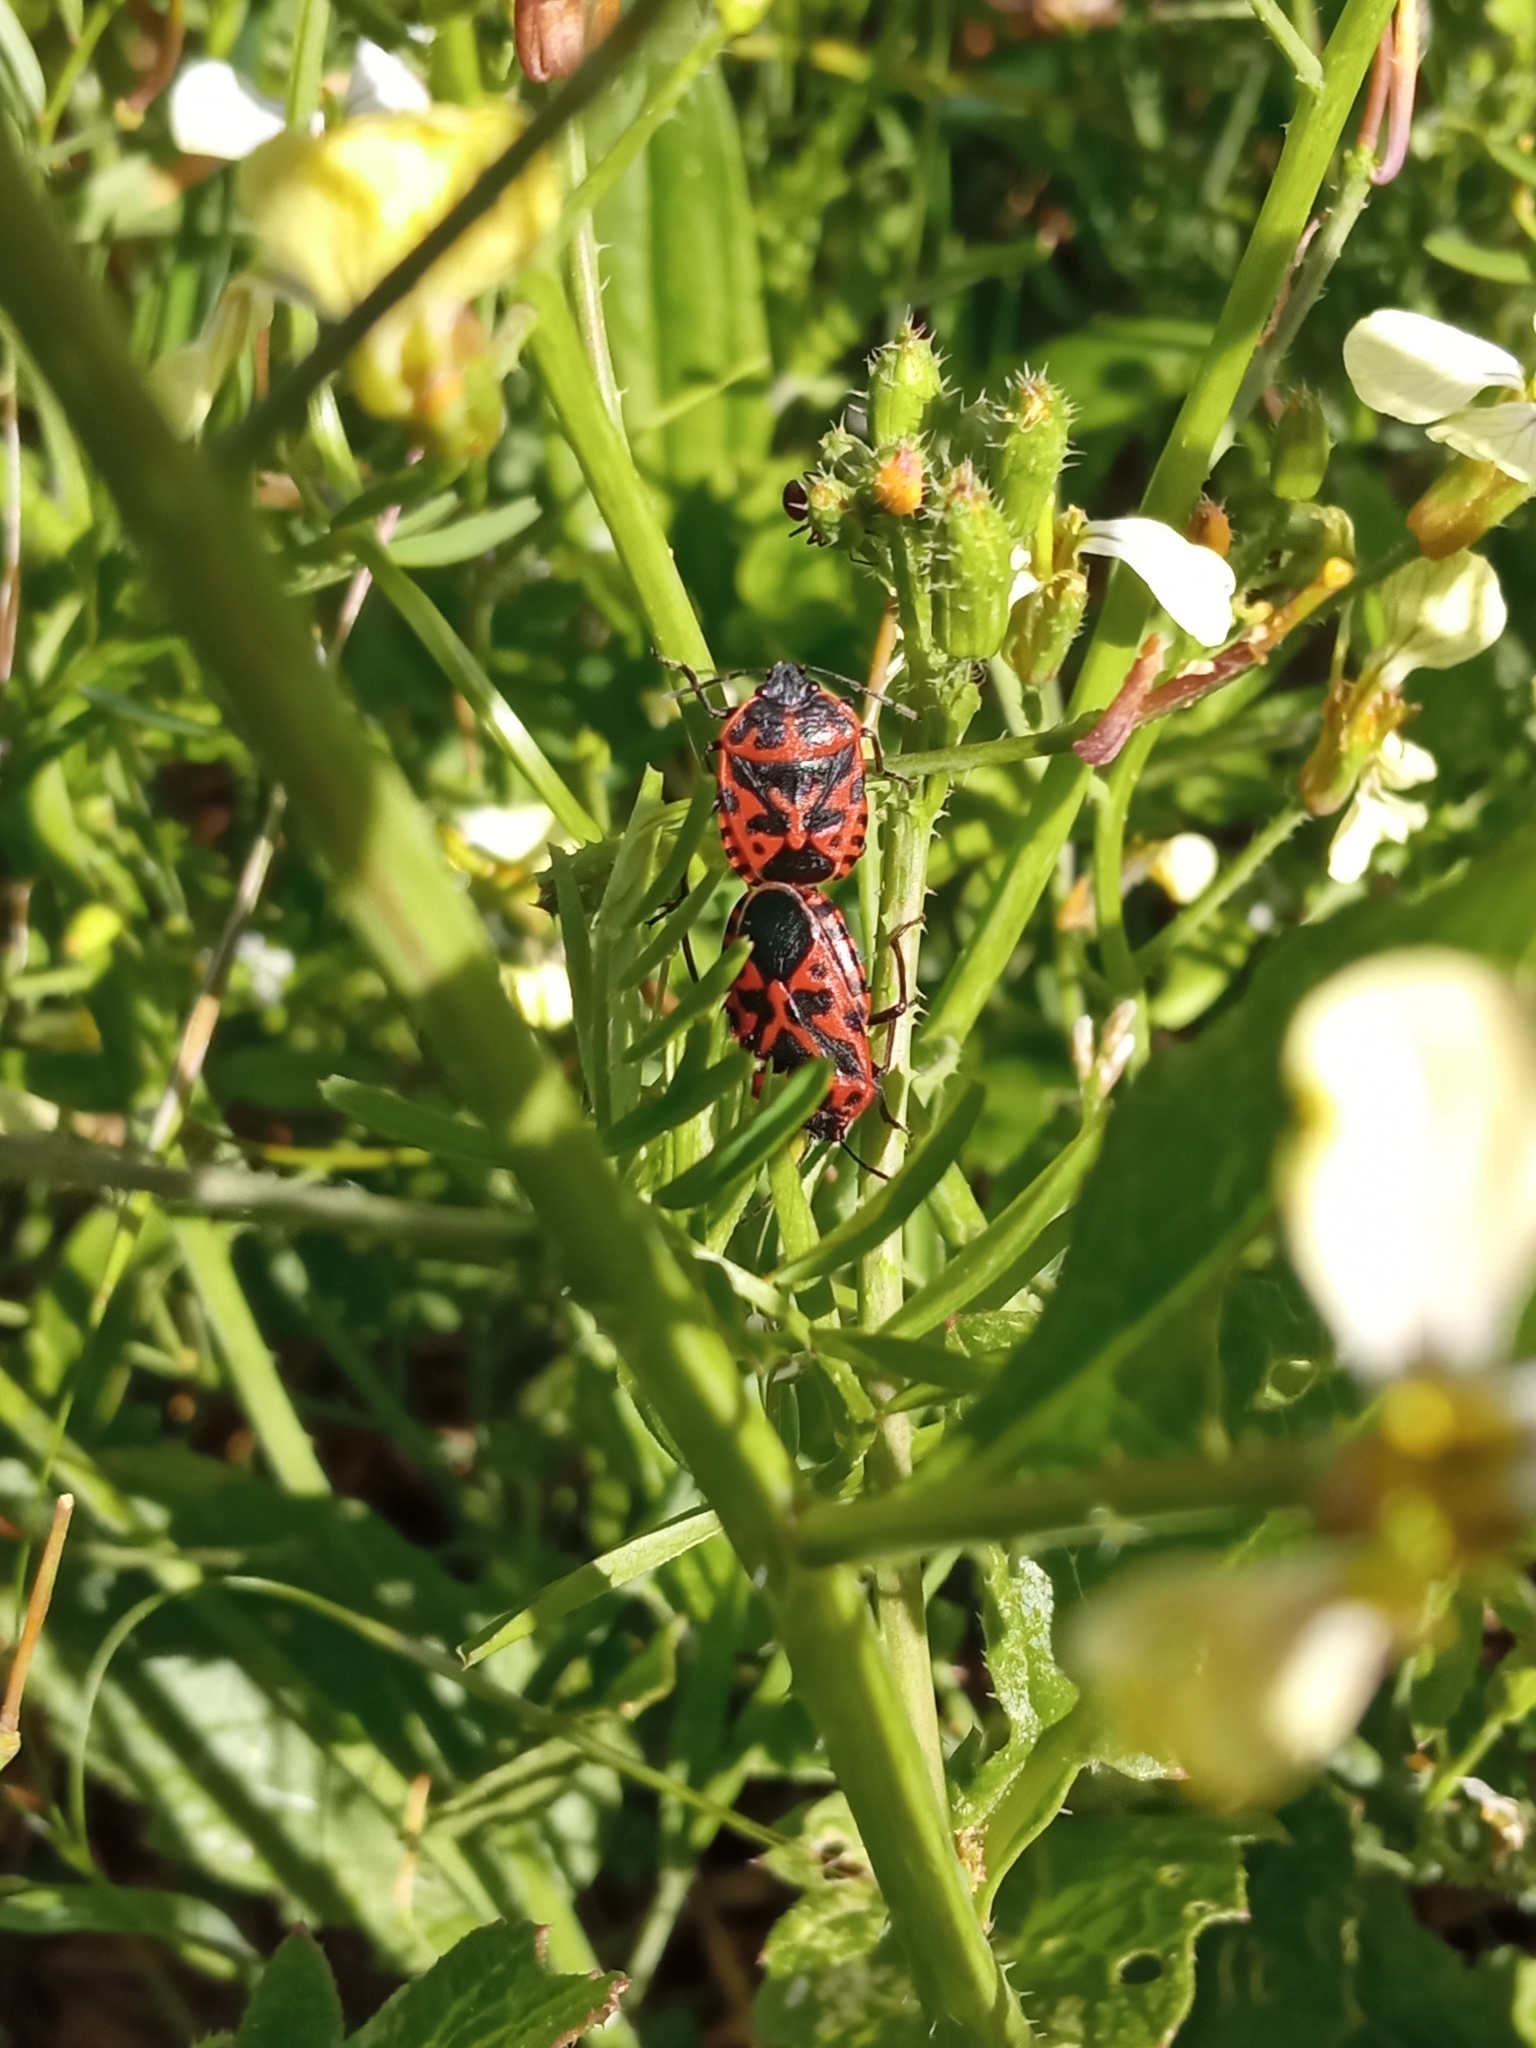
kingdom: Animalia
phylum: Arthropoda
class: Insecta
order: Hemiptera
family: Pentatomidae
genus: Eurydema
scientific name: Eurydema ventralis
